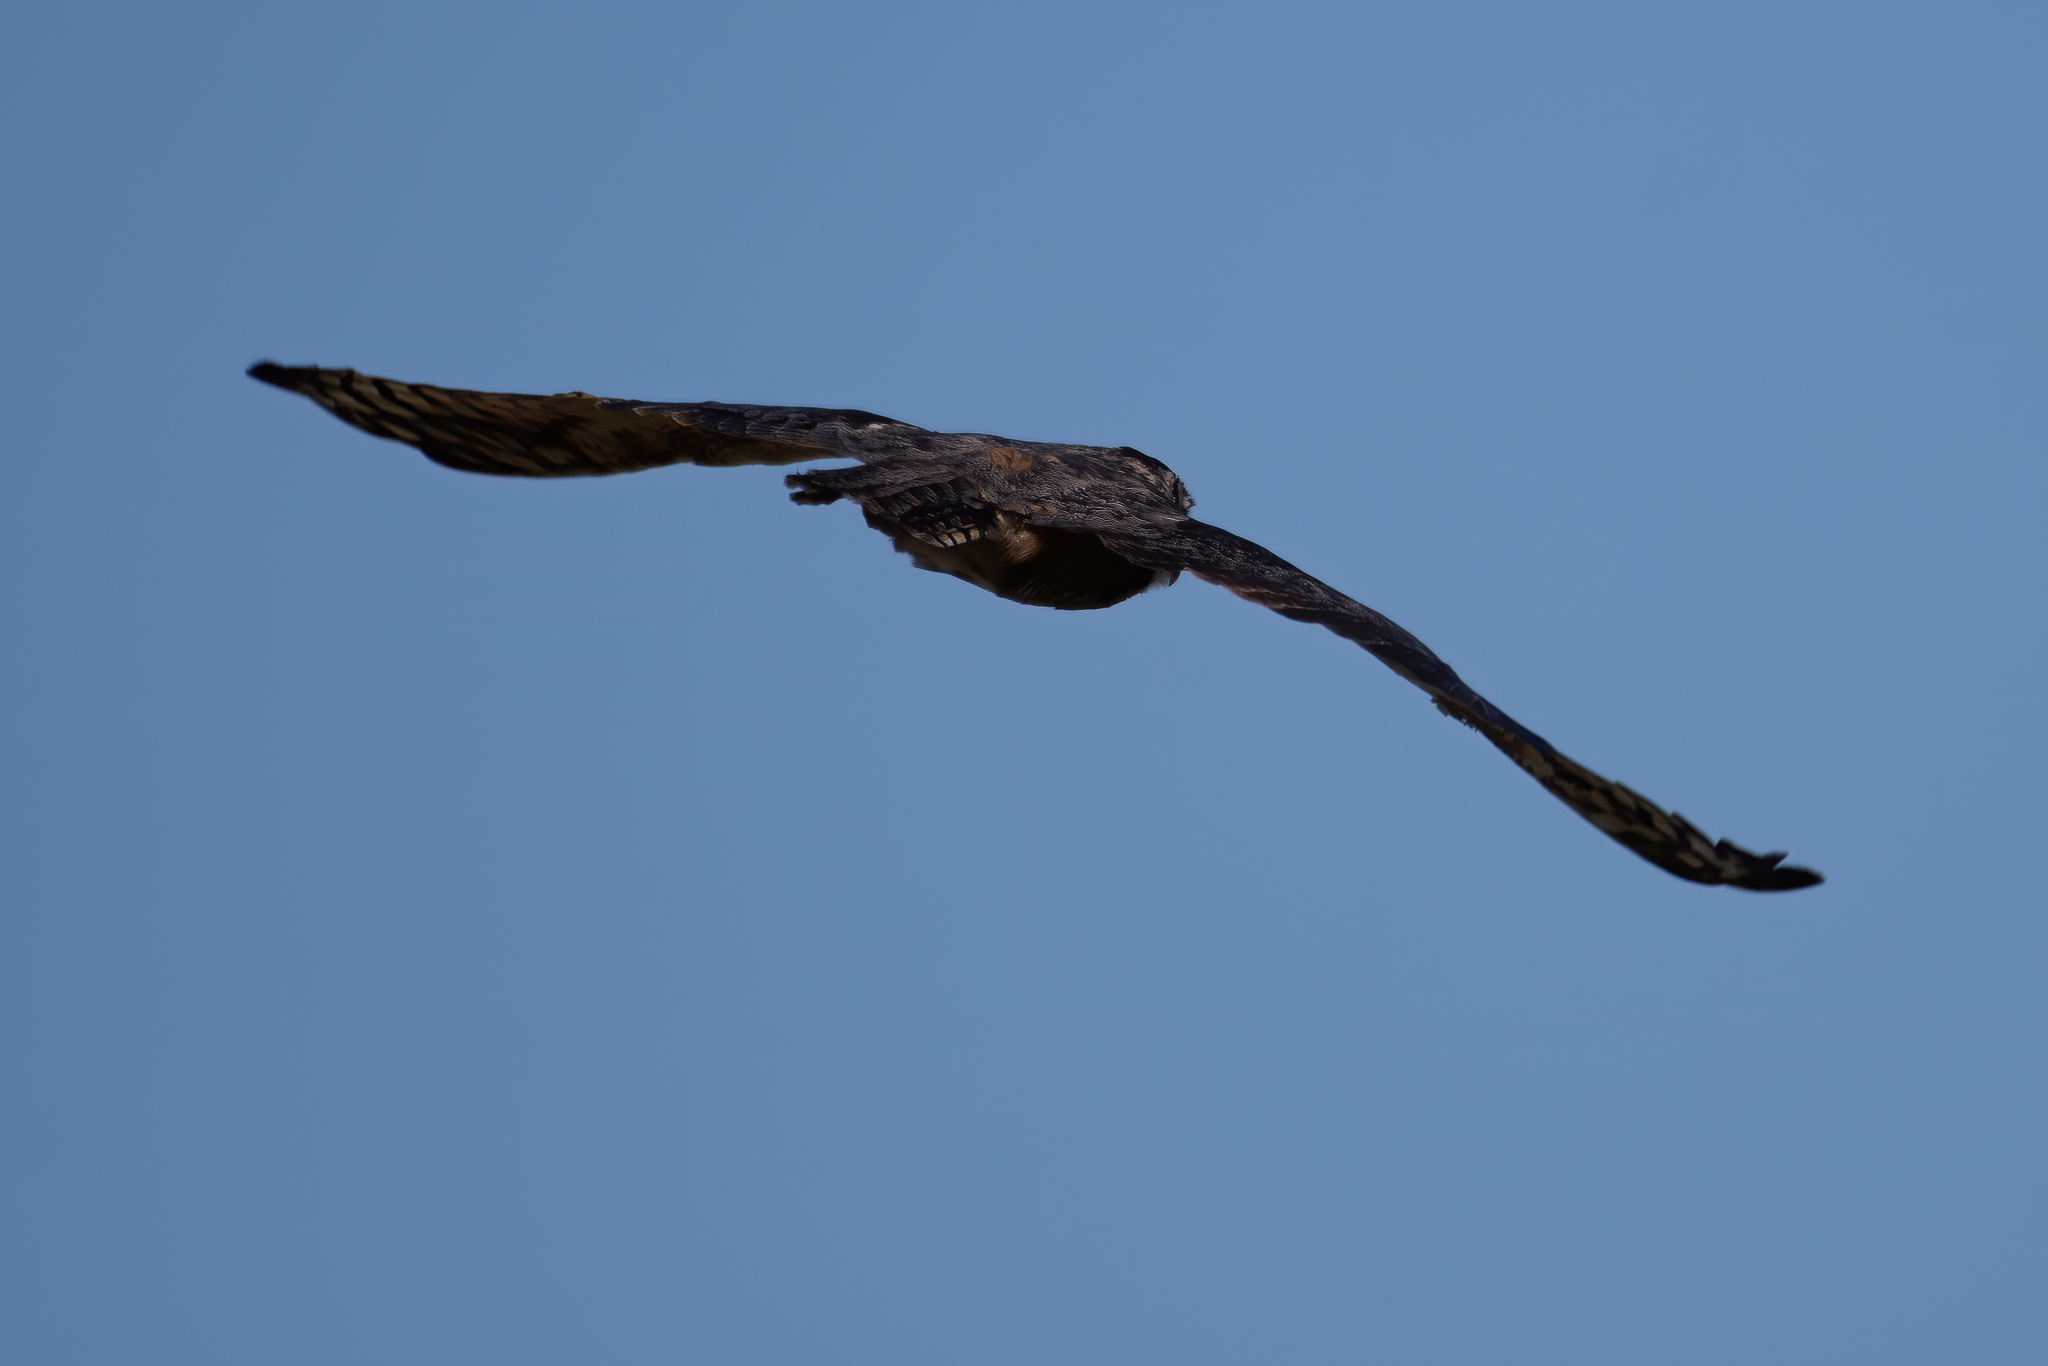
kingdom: Animalia
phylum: Chordata
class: Aves
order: Strigiformes
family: Strigidae
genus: Bubo
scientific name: Bubo virginianus
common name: Great horned owl
